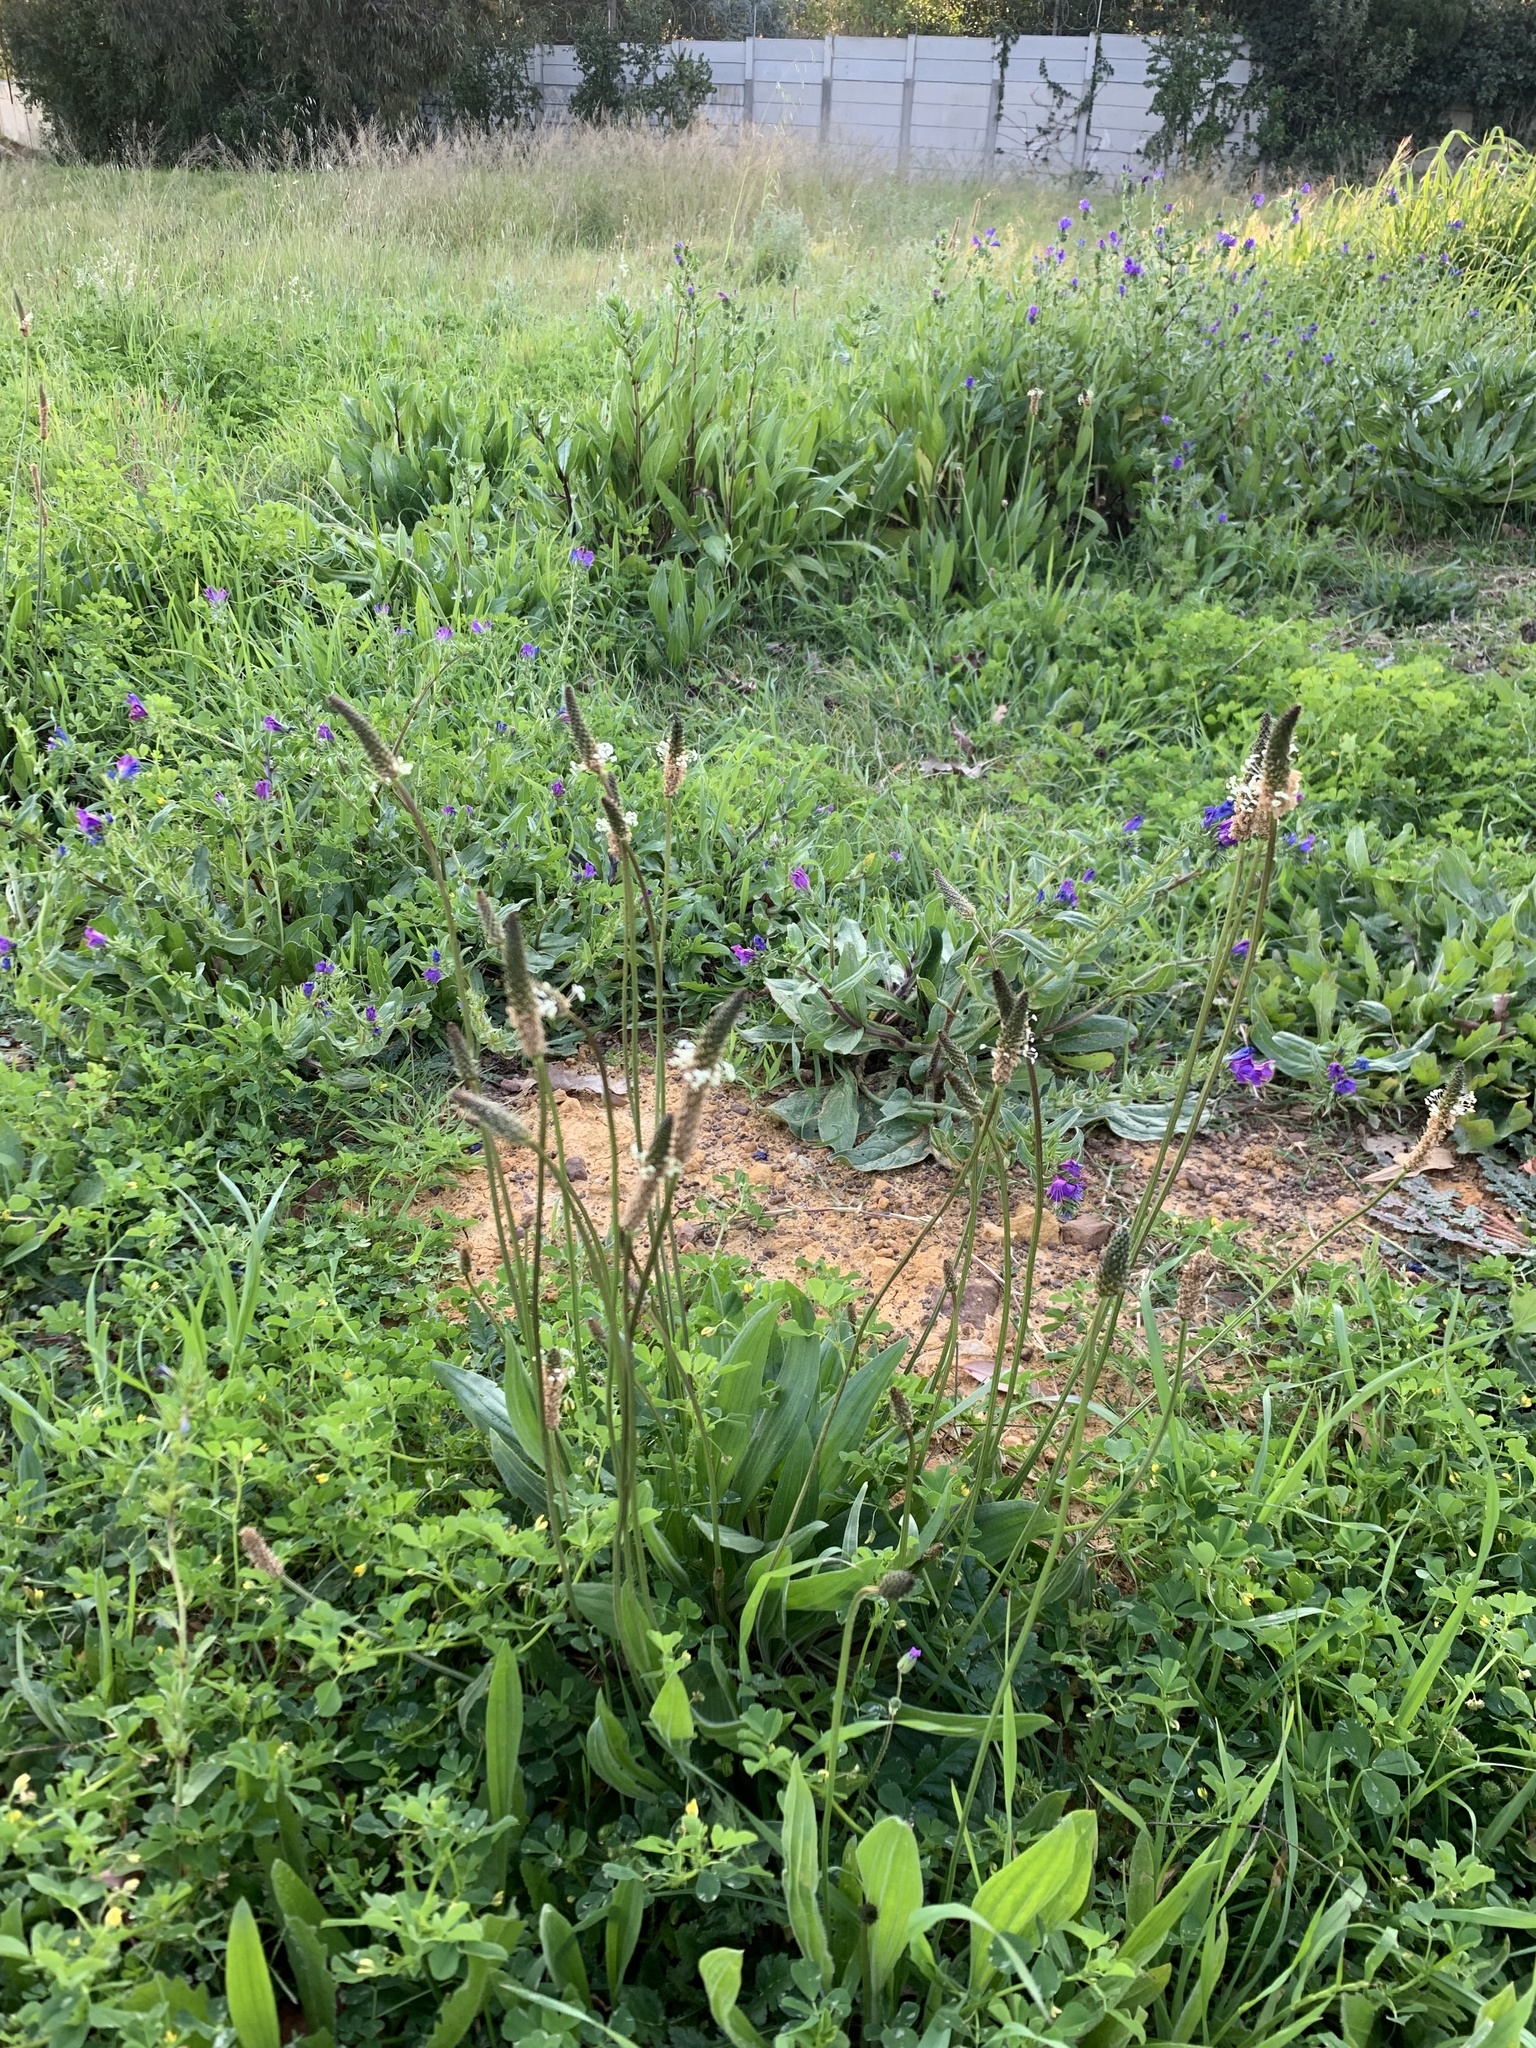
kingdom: Plantae
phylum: Tracheophyta
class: Magnoliopsida
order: Lamiales
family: Plantaginaceae
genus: Plantago
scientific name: Plantago lanceolata
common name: Ribwort plantain
